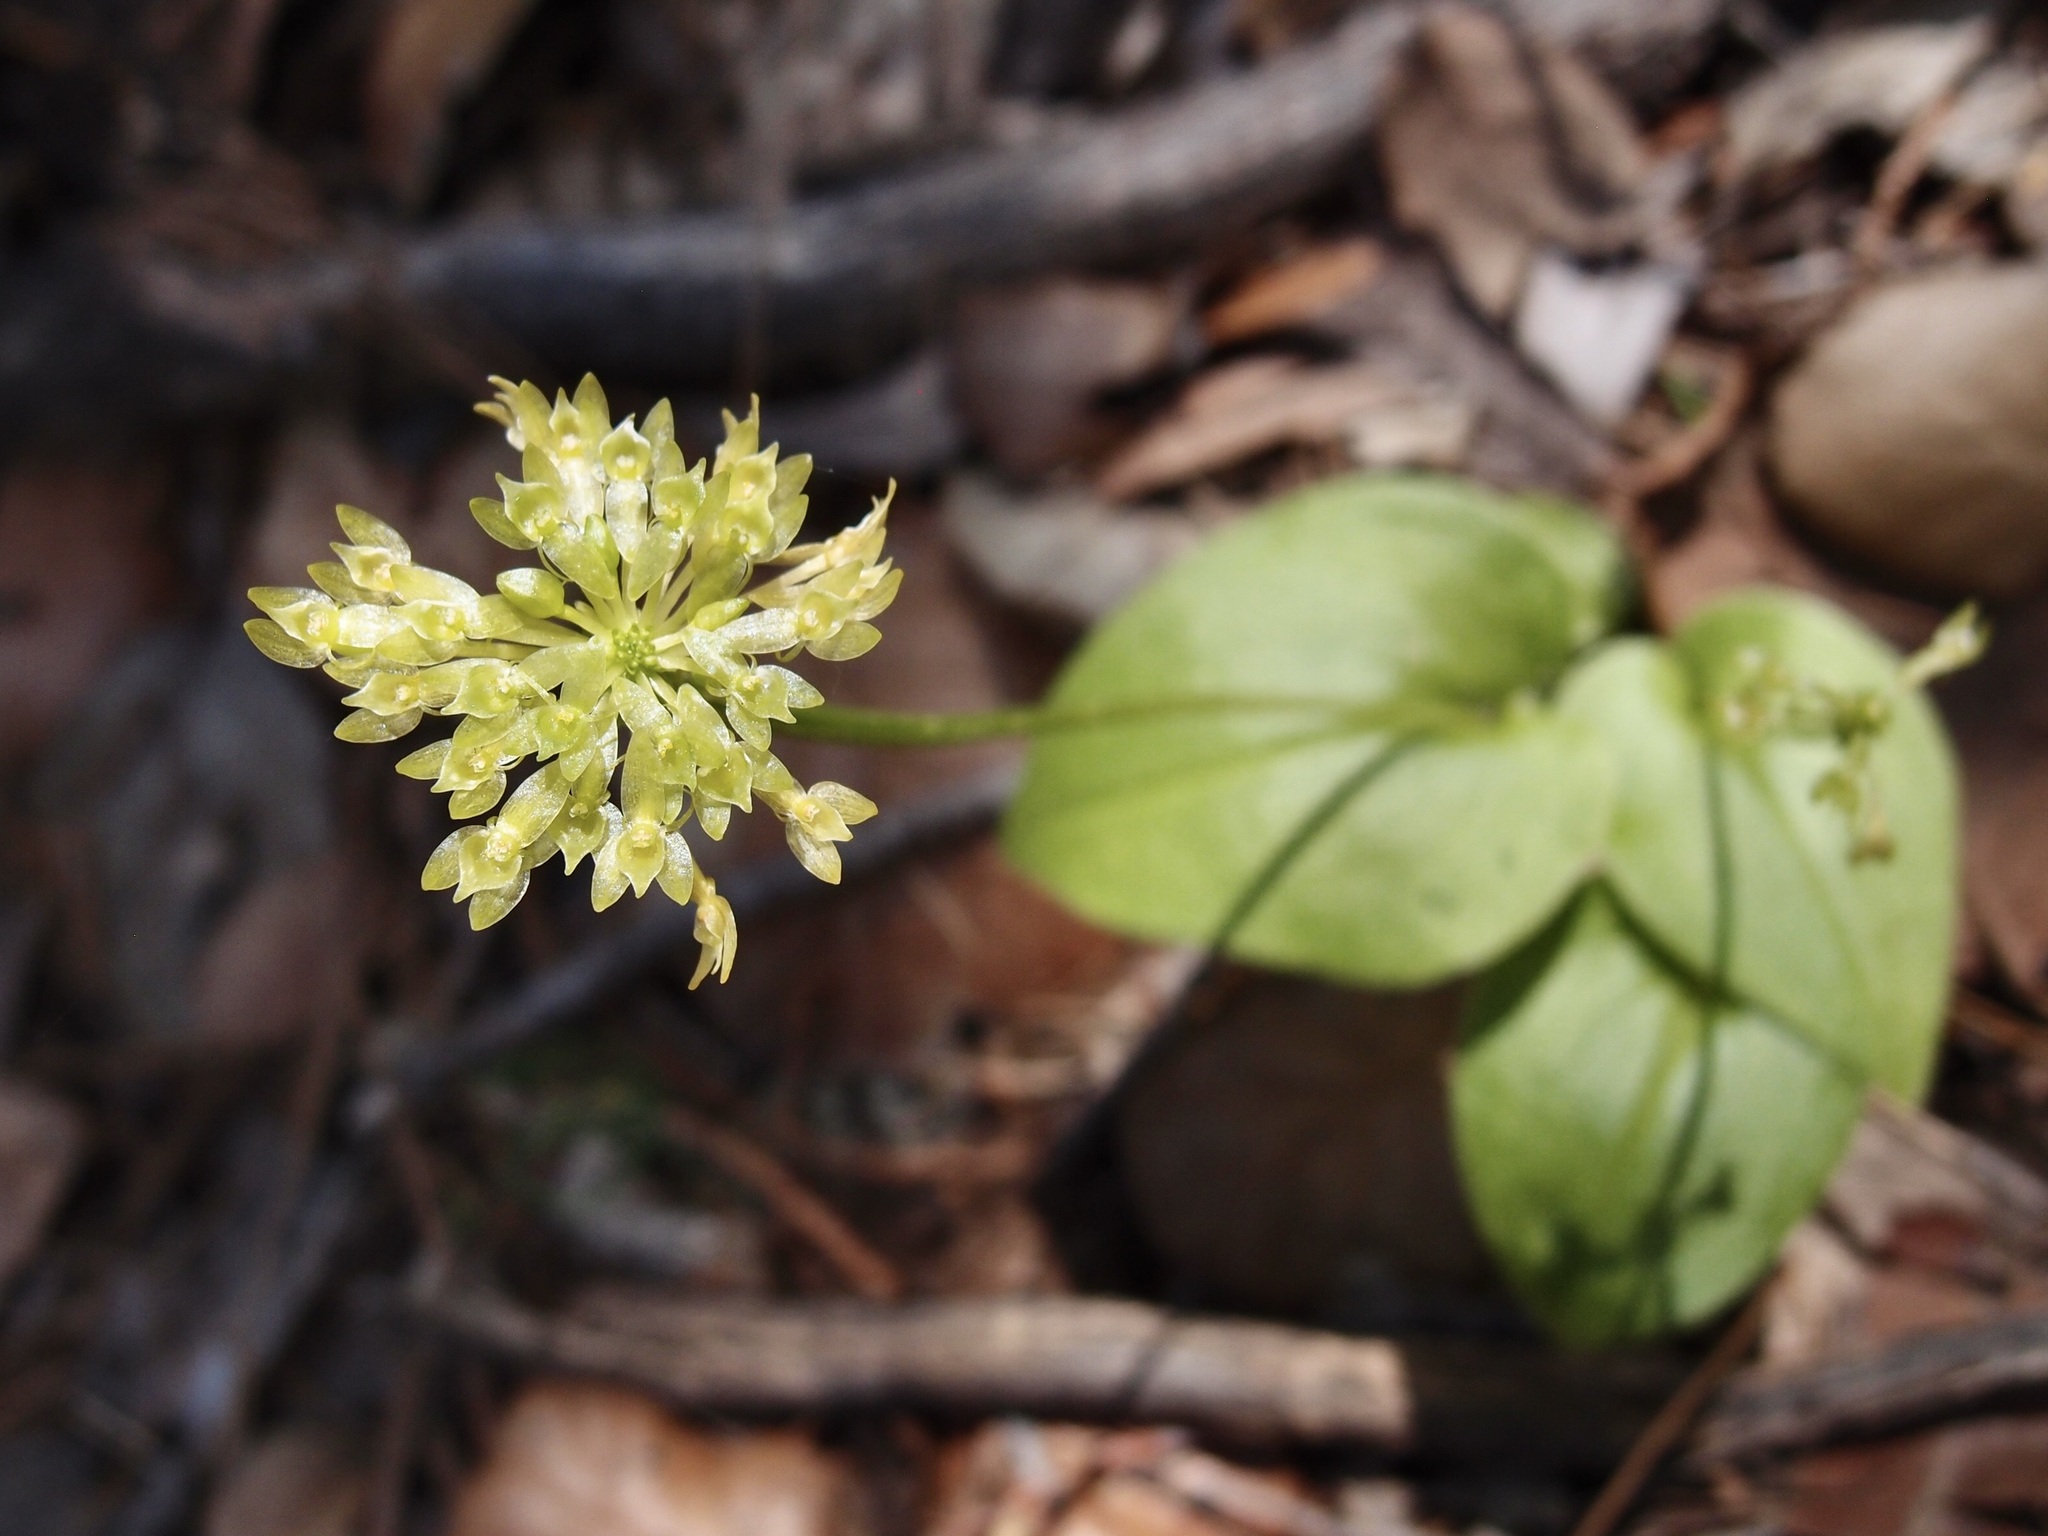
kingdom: Plantae
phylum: Tracheophyta
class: Liliopsida
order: Asparagales
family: Orchidaceae
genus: Malaxis
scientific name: Malaxis brachystachys
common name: Huachuca adder's-mouth
